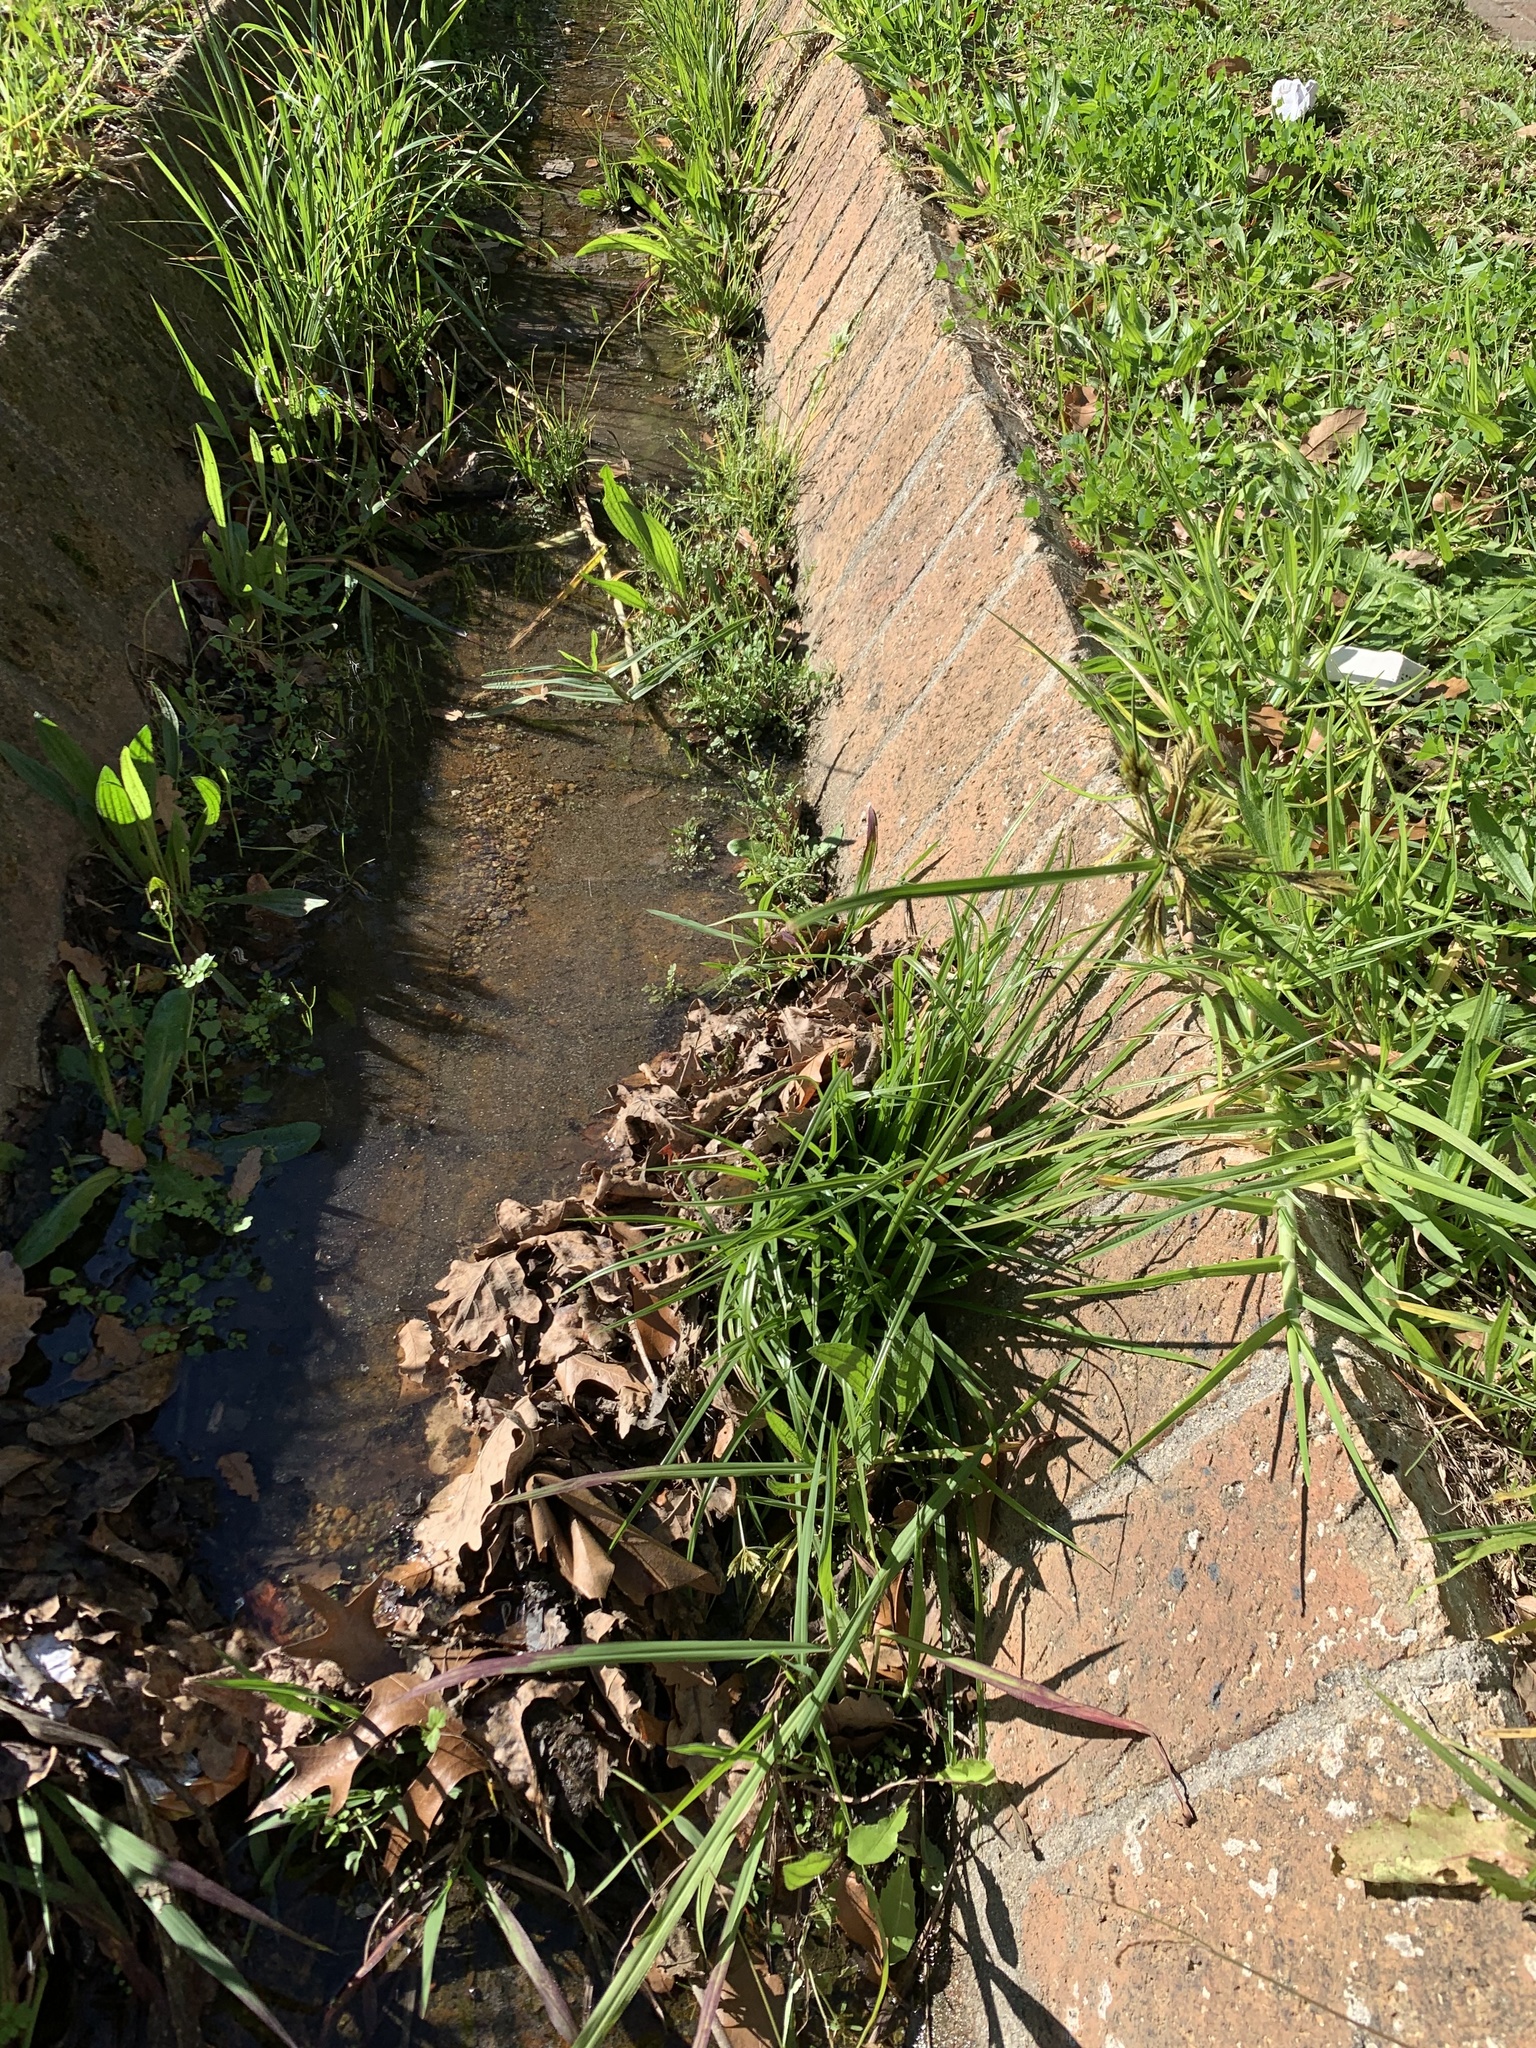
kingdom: Plantae
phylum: Tracheophyta
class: Liliopsida
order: Poales
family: Cyperaceae
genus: Cyperus
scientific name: Cyperus polystachyos
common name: Bunchy flat sedge
